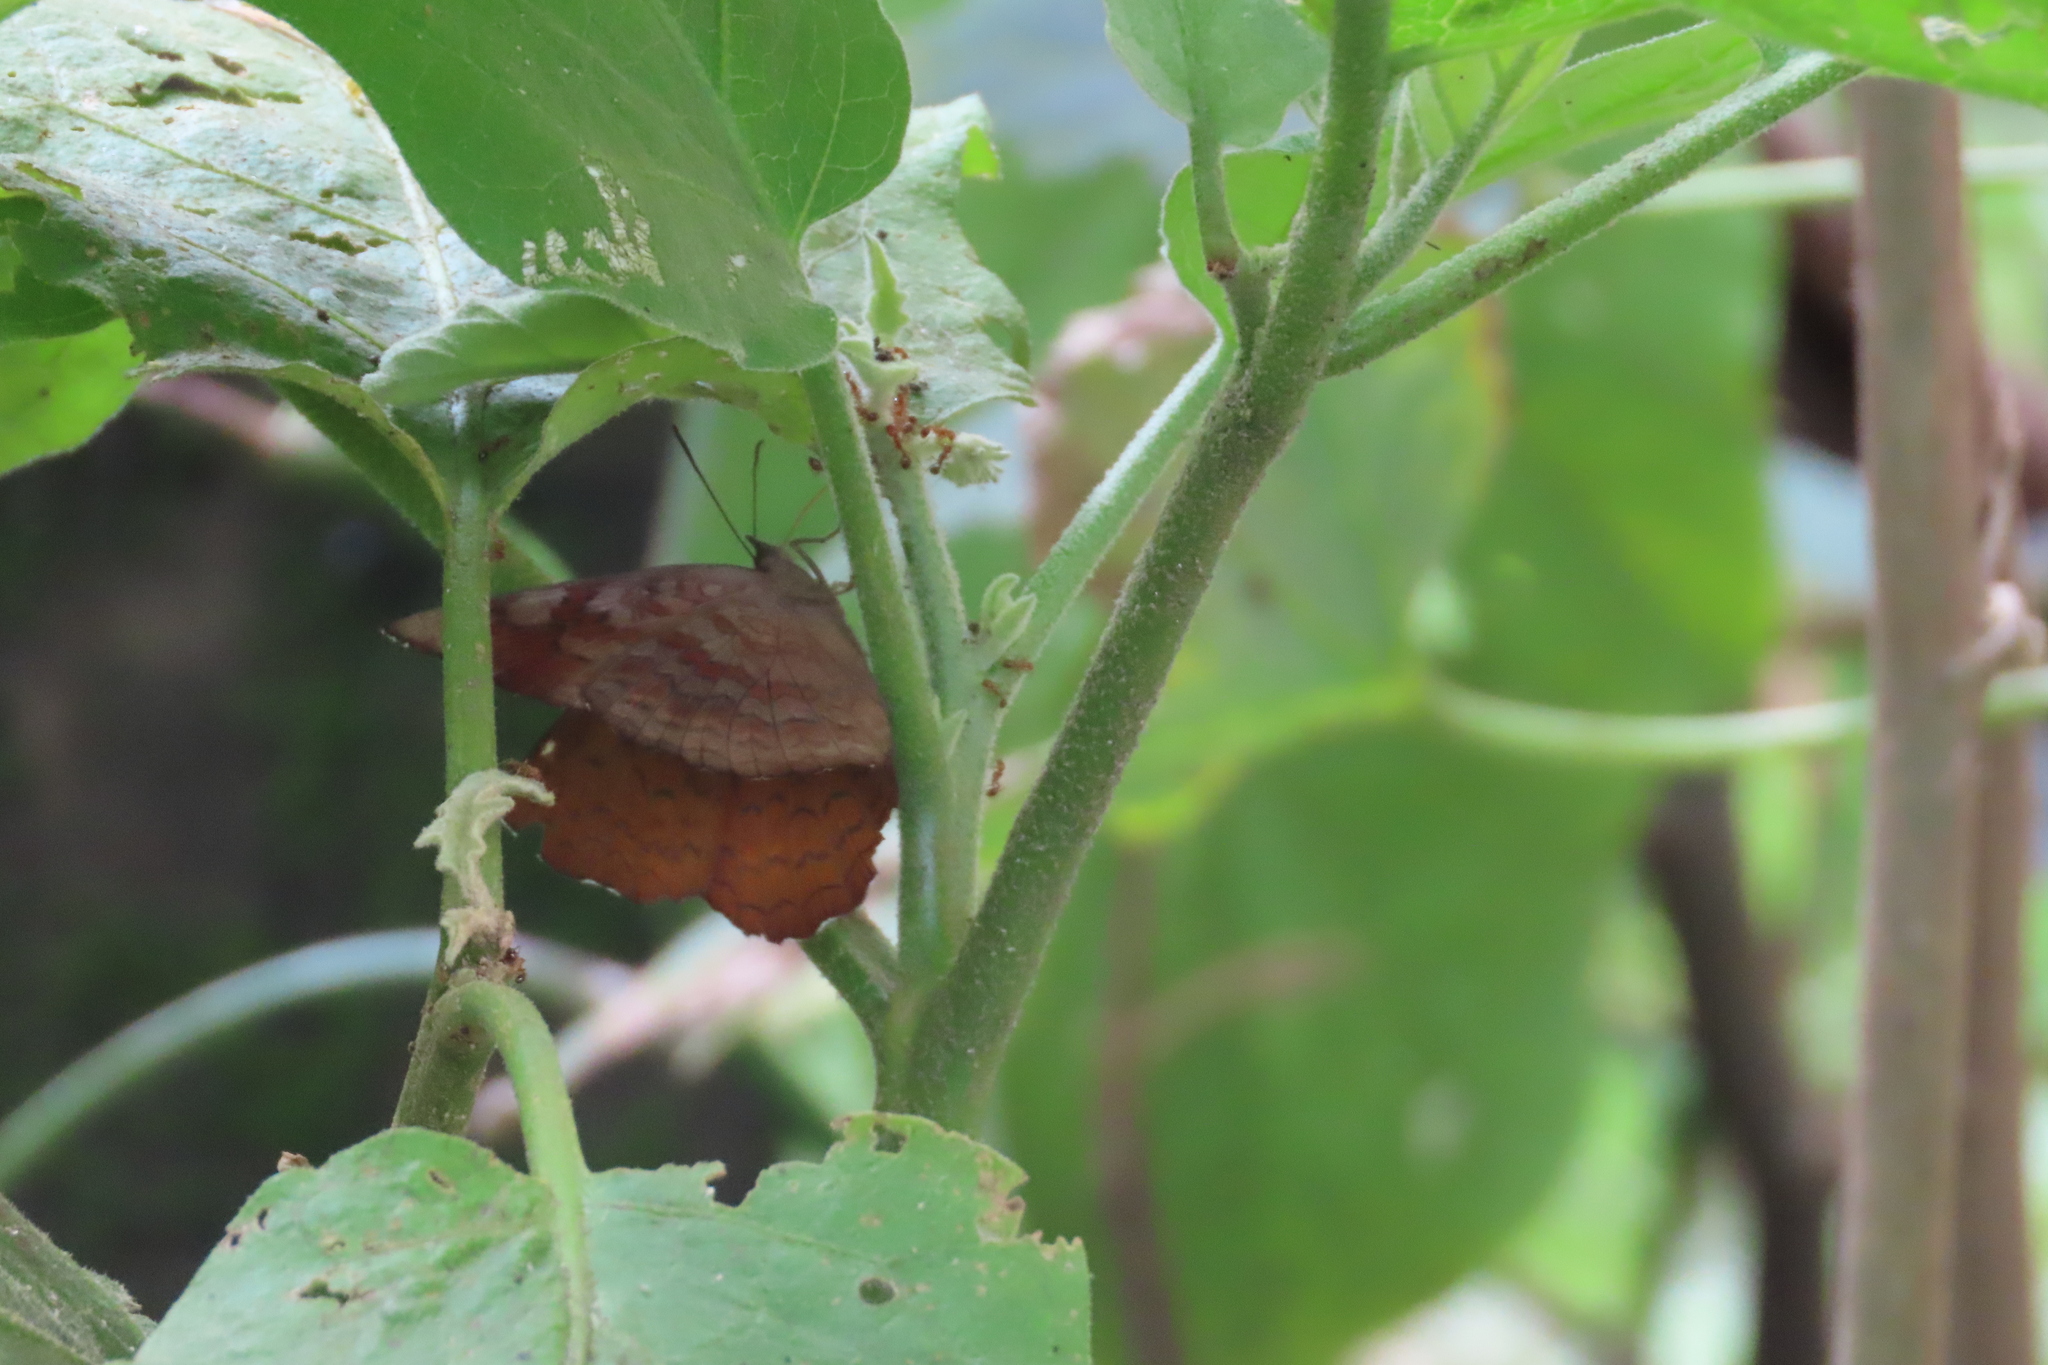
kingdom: Animalia
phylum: Arthropoda
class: Insecta
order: Lepidoptera
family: Nymphalidae
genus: Ariadne
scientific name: Ariadne ariadne
